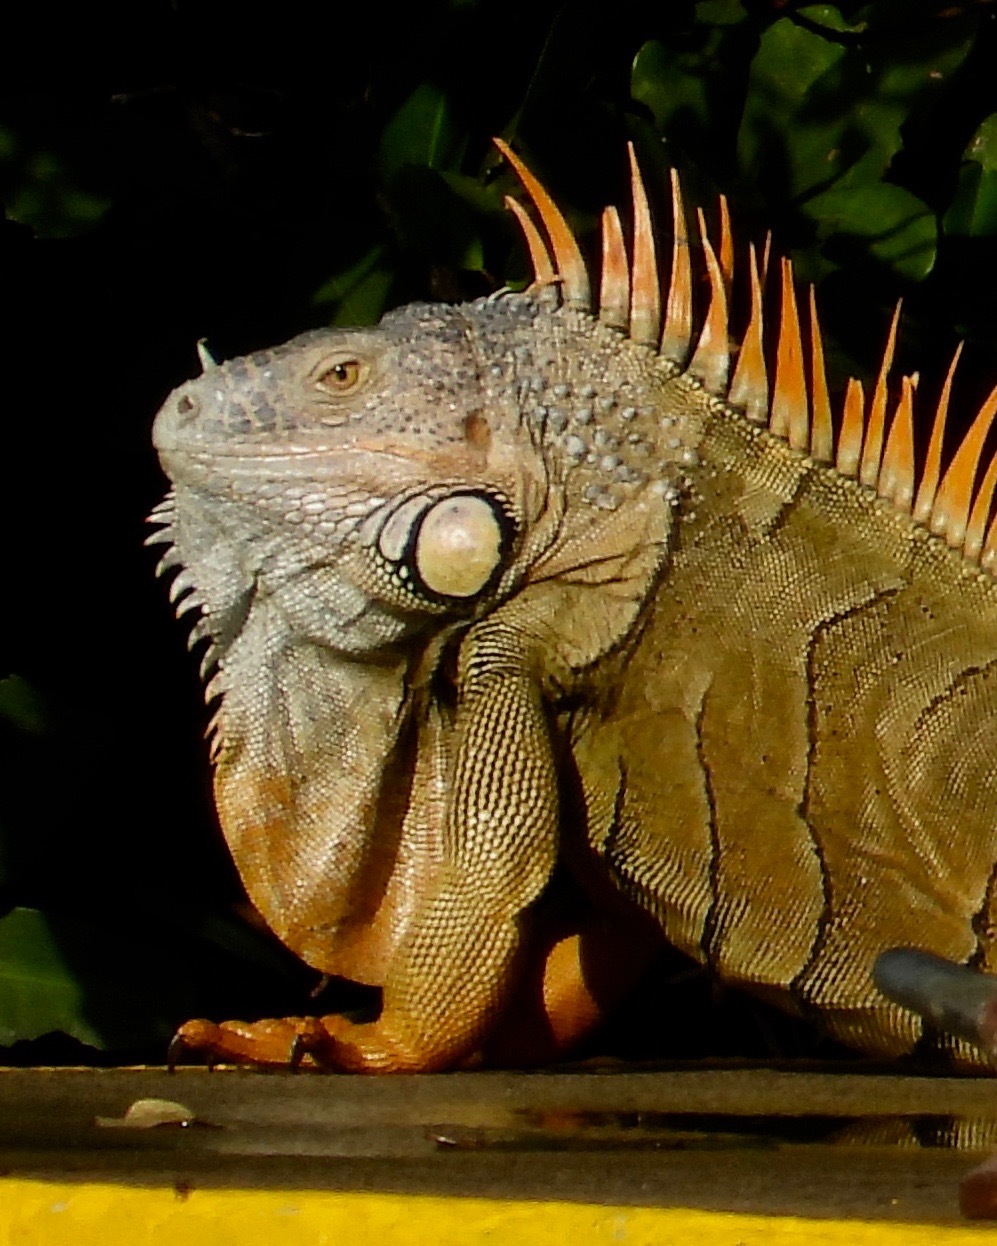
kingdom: Animalia
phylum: Chordata
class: Squamata
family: Iguanidae
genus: Iguana
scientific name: Iguana iguana
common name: Green iguana
